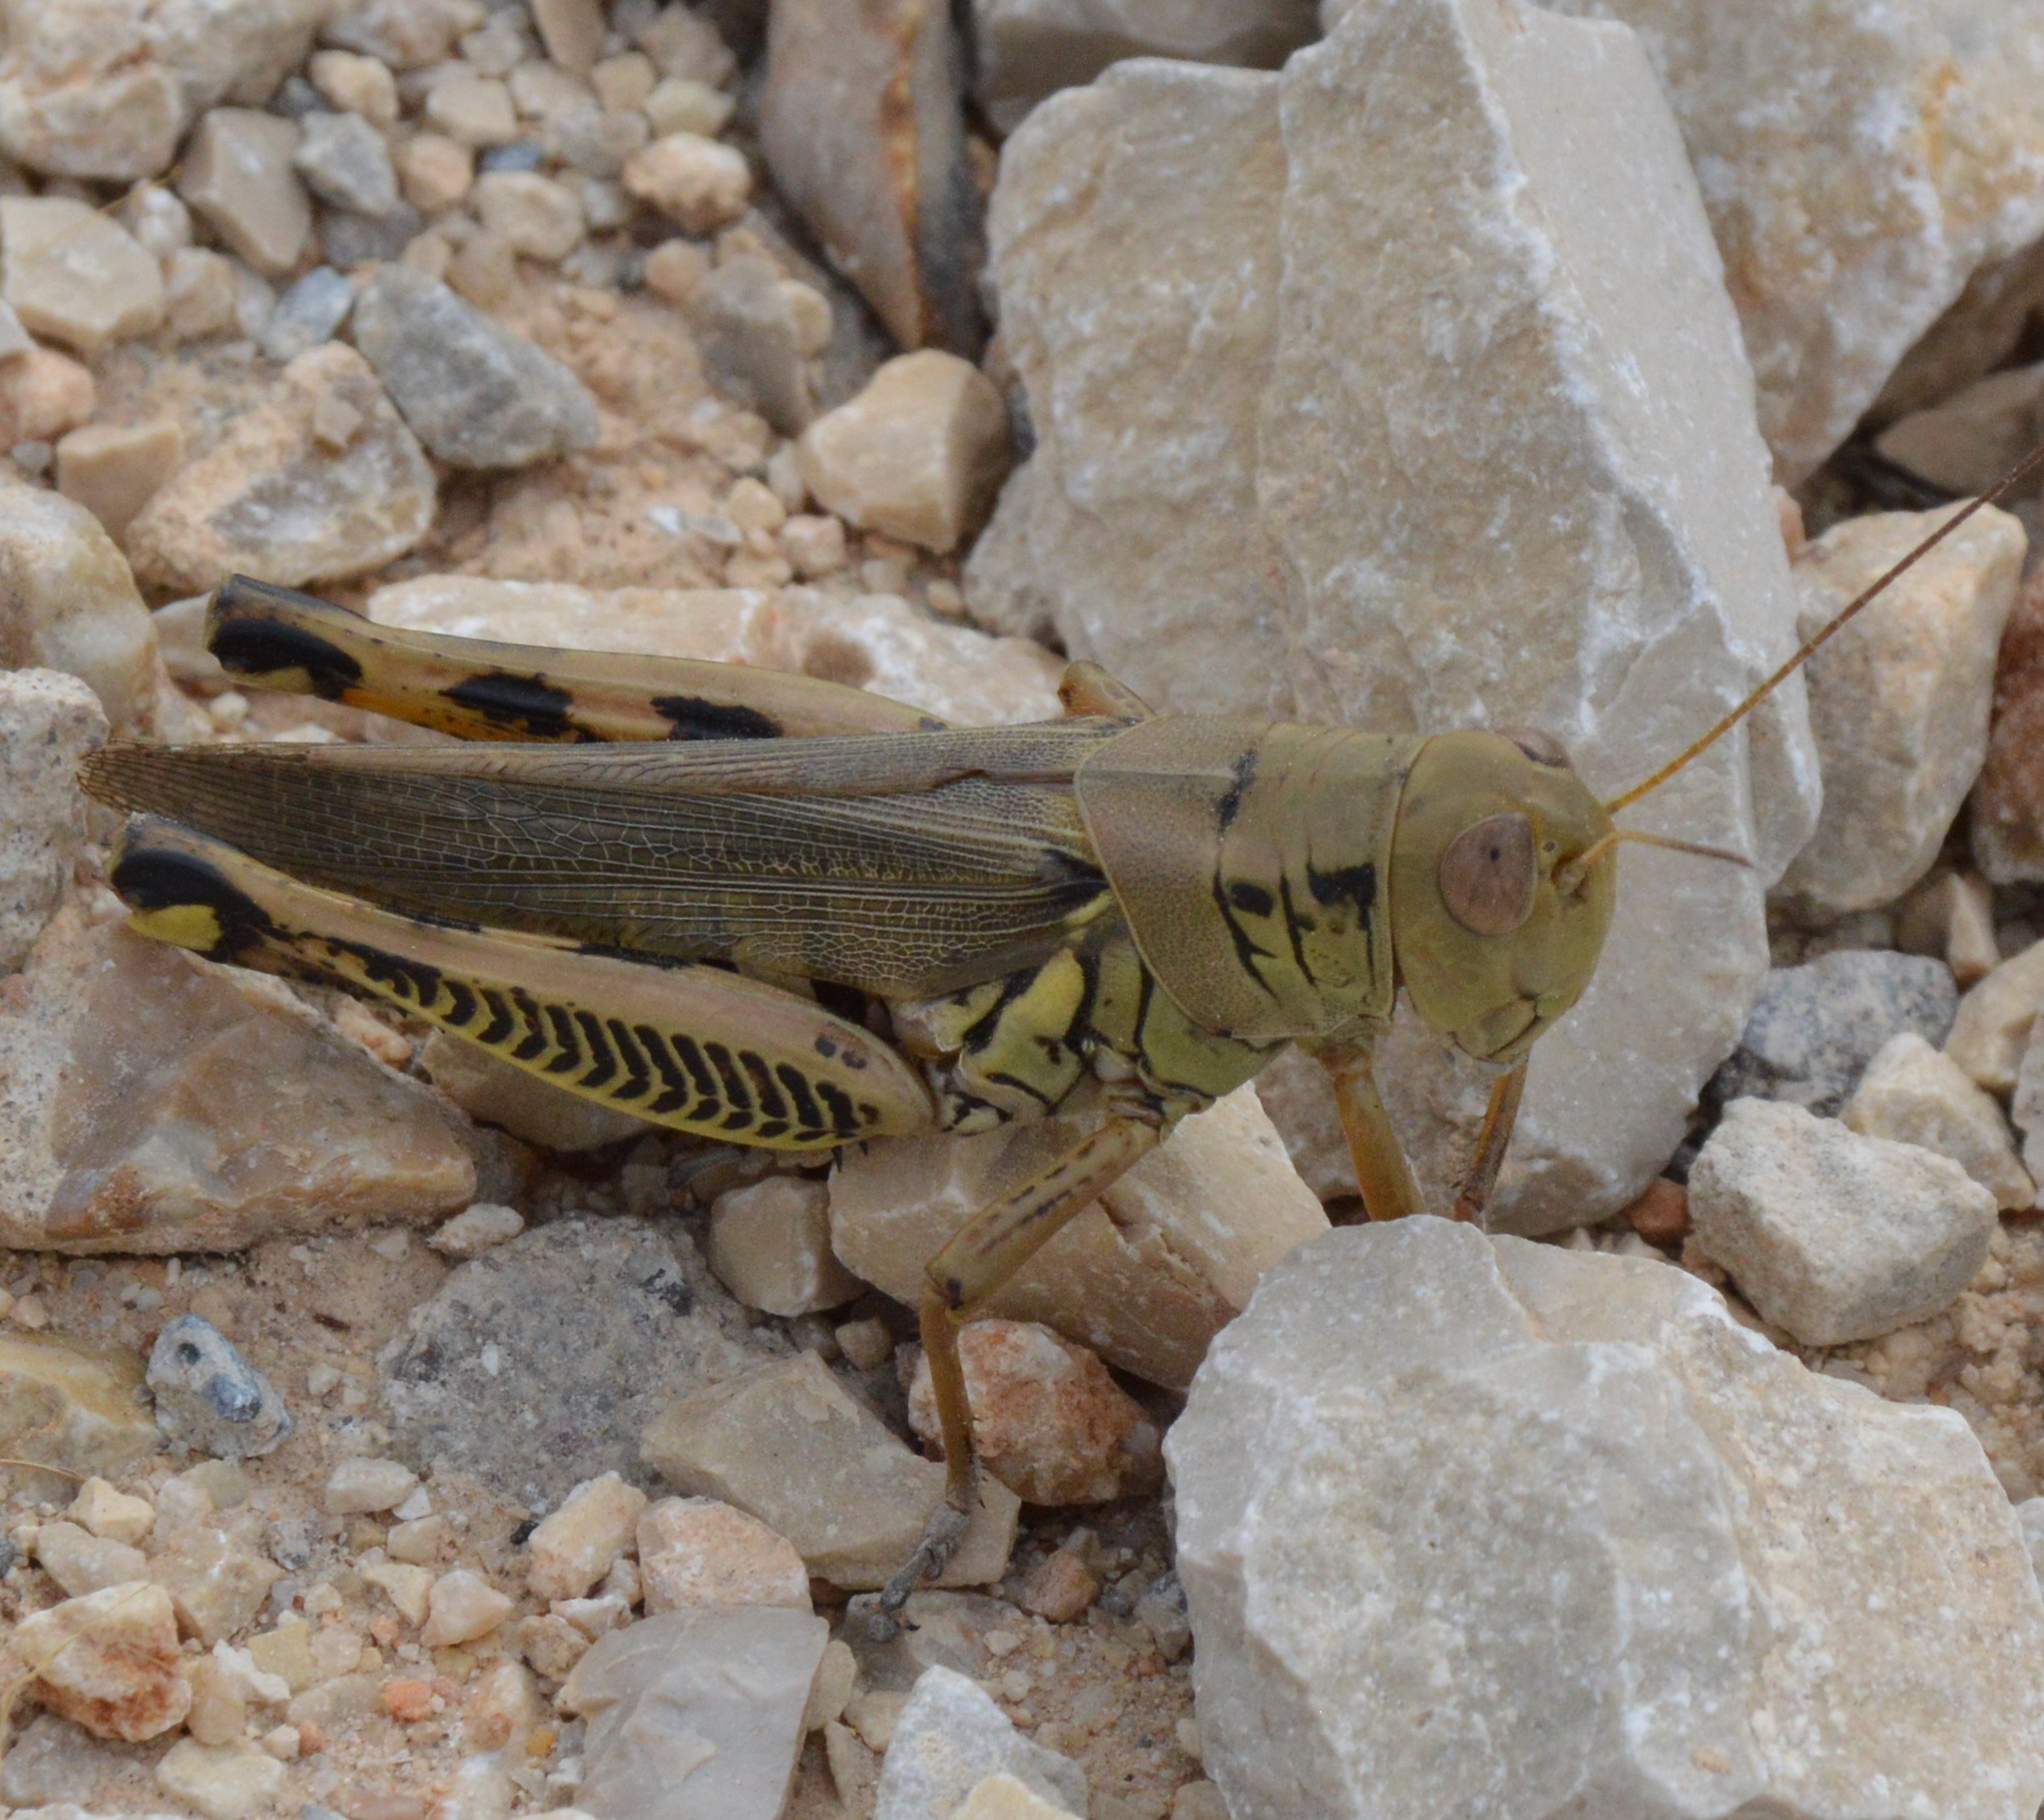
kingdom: Animalia
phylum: Arthropoda
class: Insecta
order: Orthoptera
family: Acrididae
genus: Melanoplus
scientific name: Melanoplus differentialis
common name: Differential grasshopper
